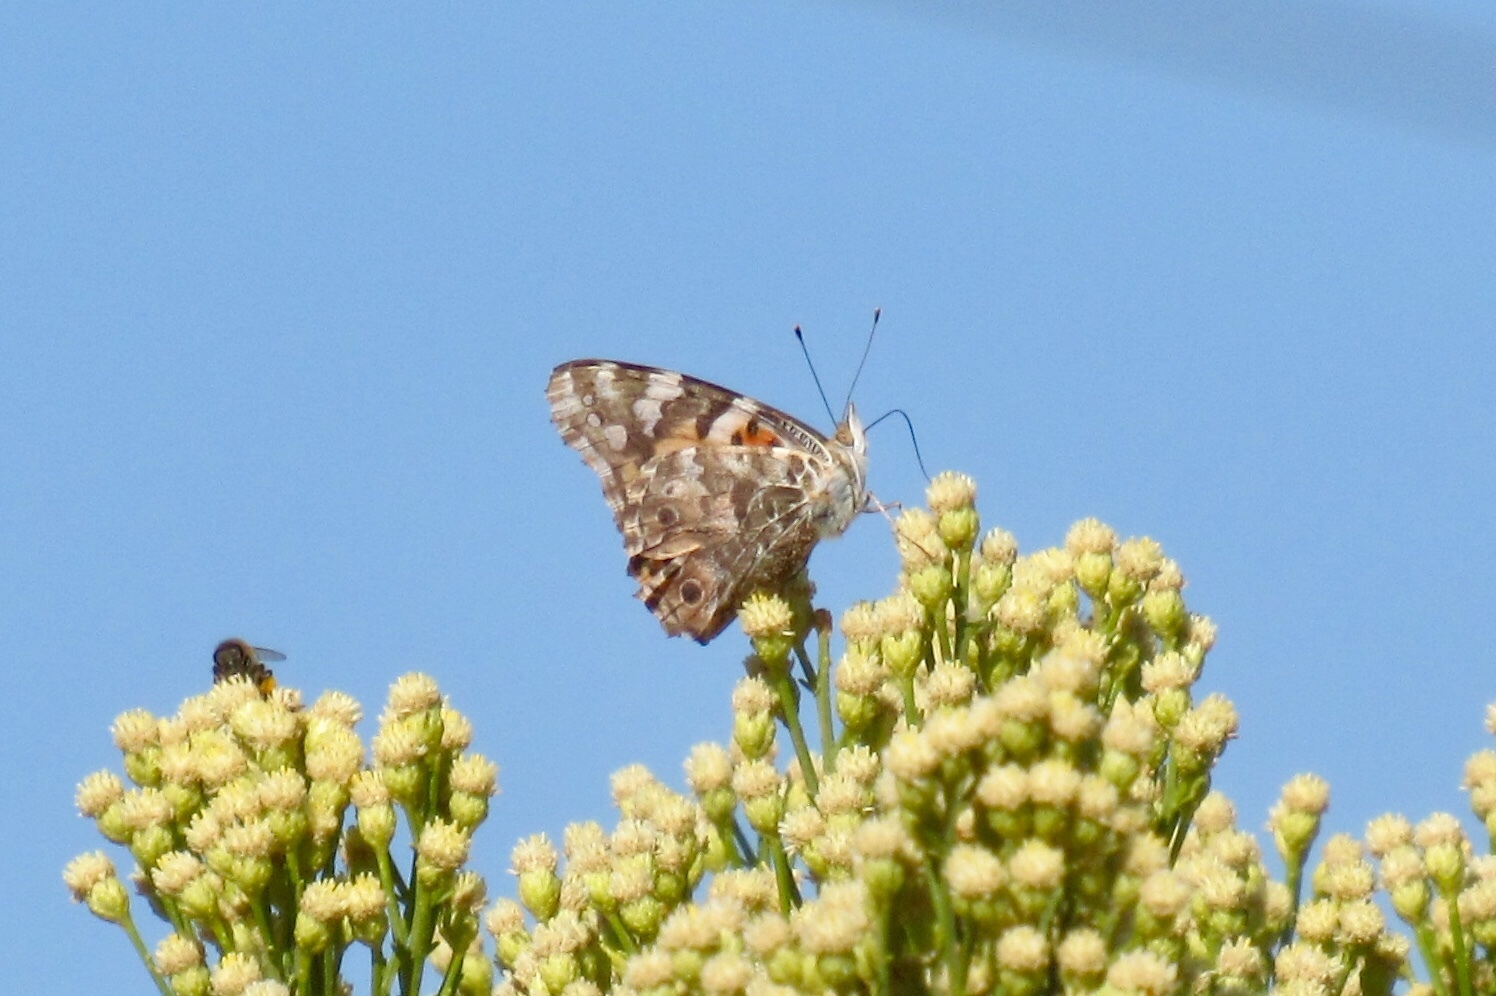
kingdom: Animalia
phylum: Arthropoda
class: Insecta
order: Lepidoptera
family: Nymphalidae
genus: Vanessa
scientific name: Vanessa cardui
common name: Painted lady
